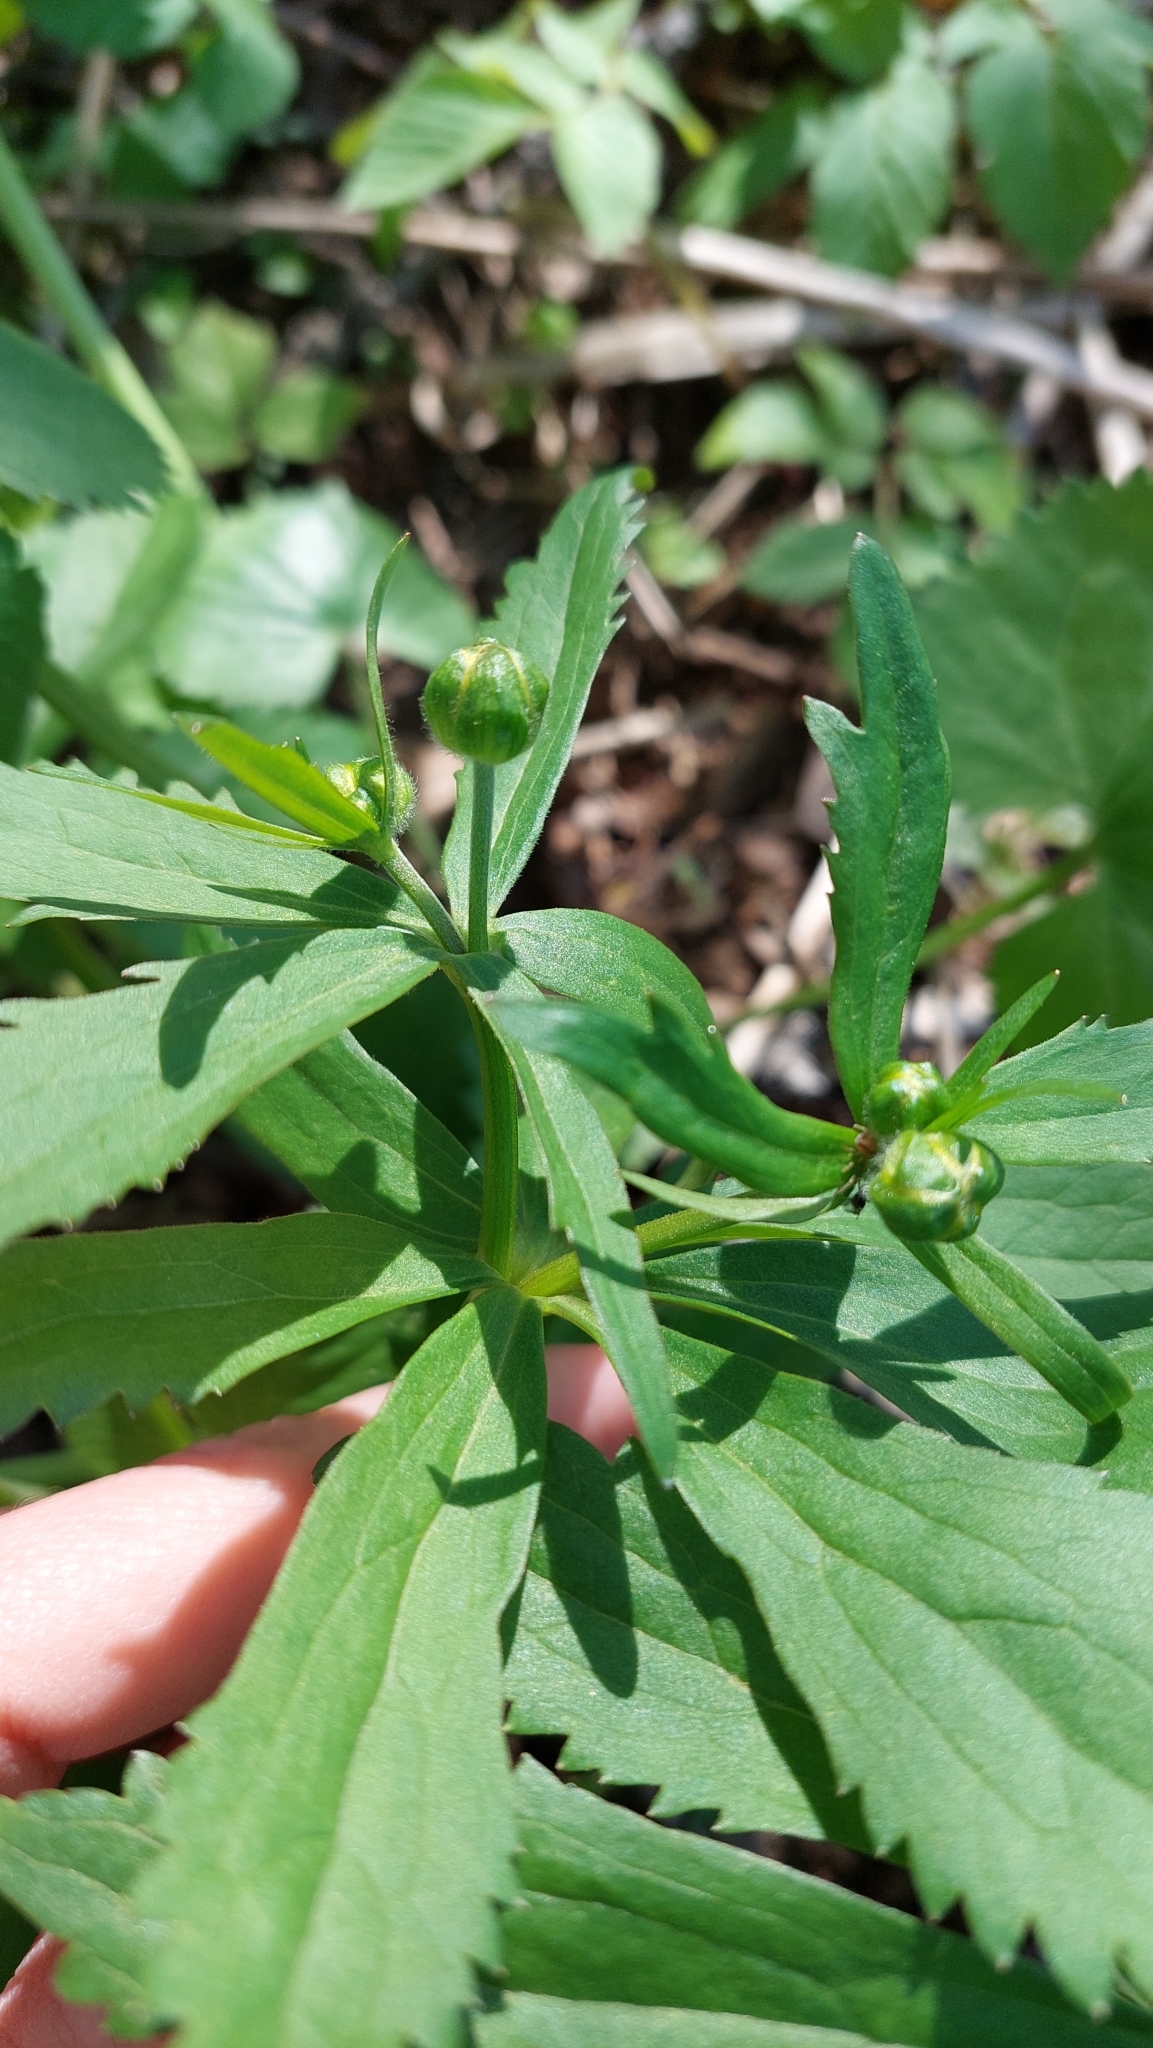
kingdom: Plantae
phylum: Tracheophyta
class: Magnoliopsida
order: Ranunculales
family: Ranunculaceae
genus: Ranunculus
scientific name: Ranunculus cassubicus
